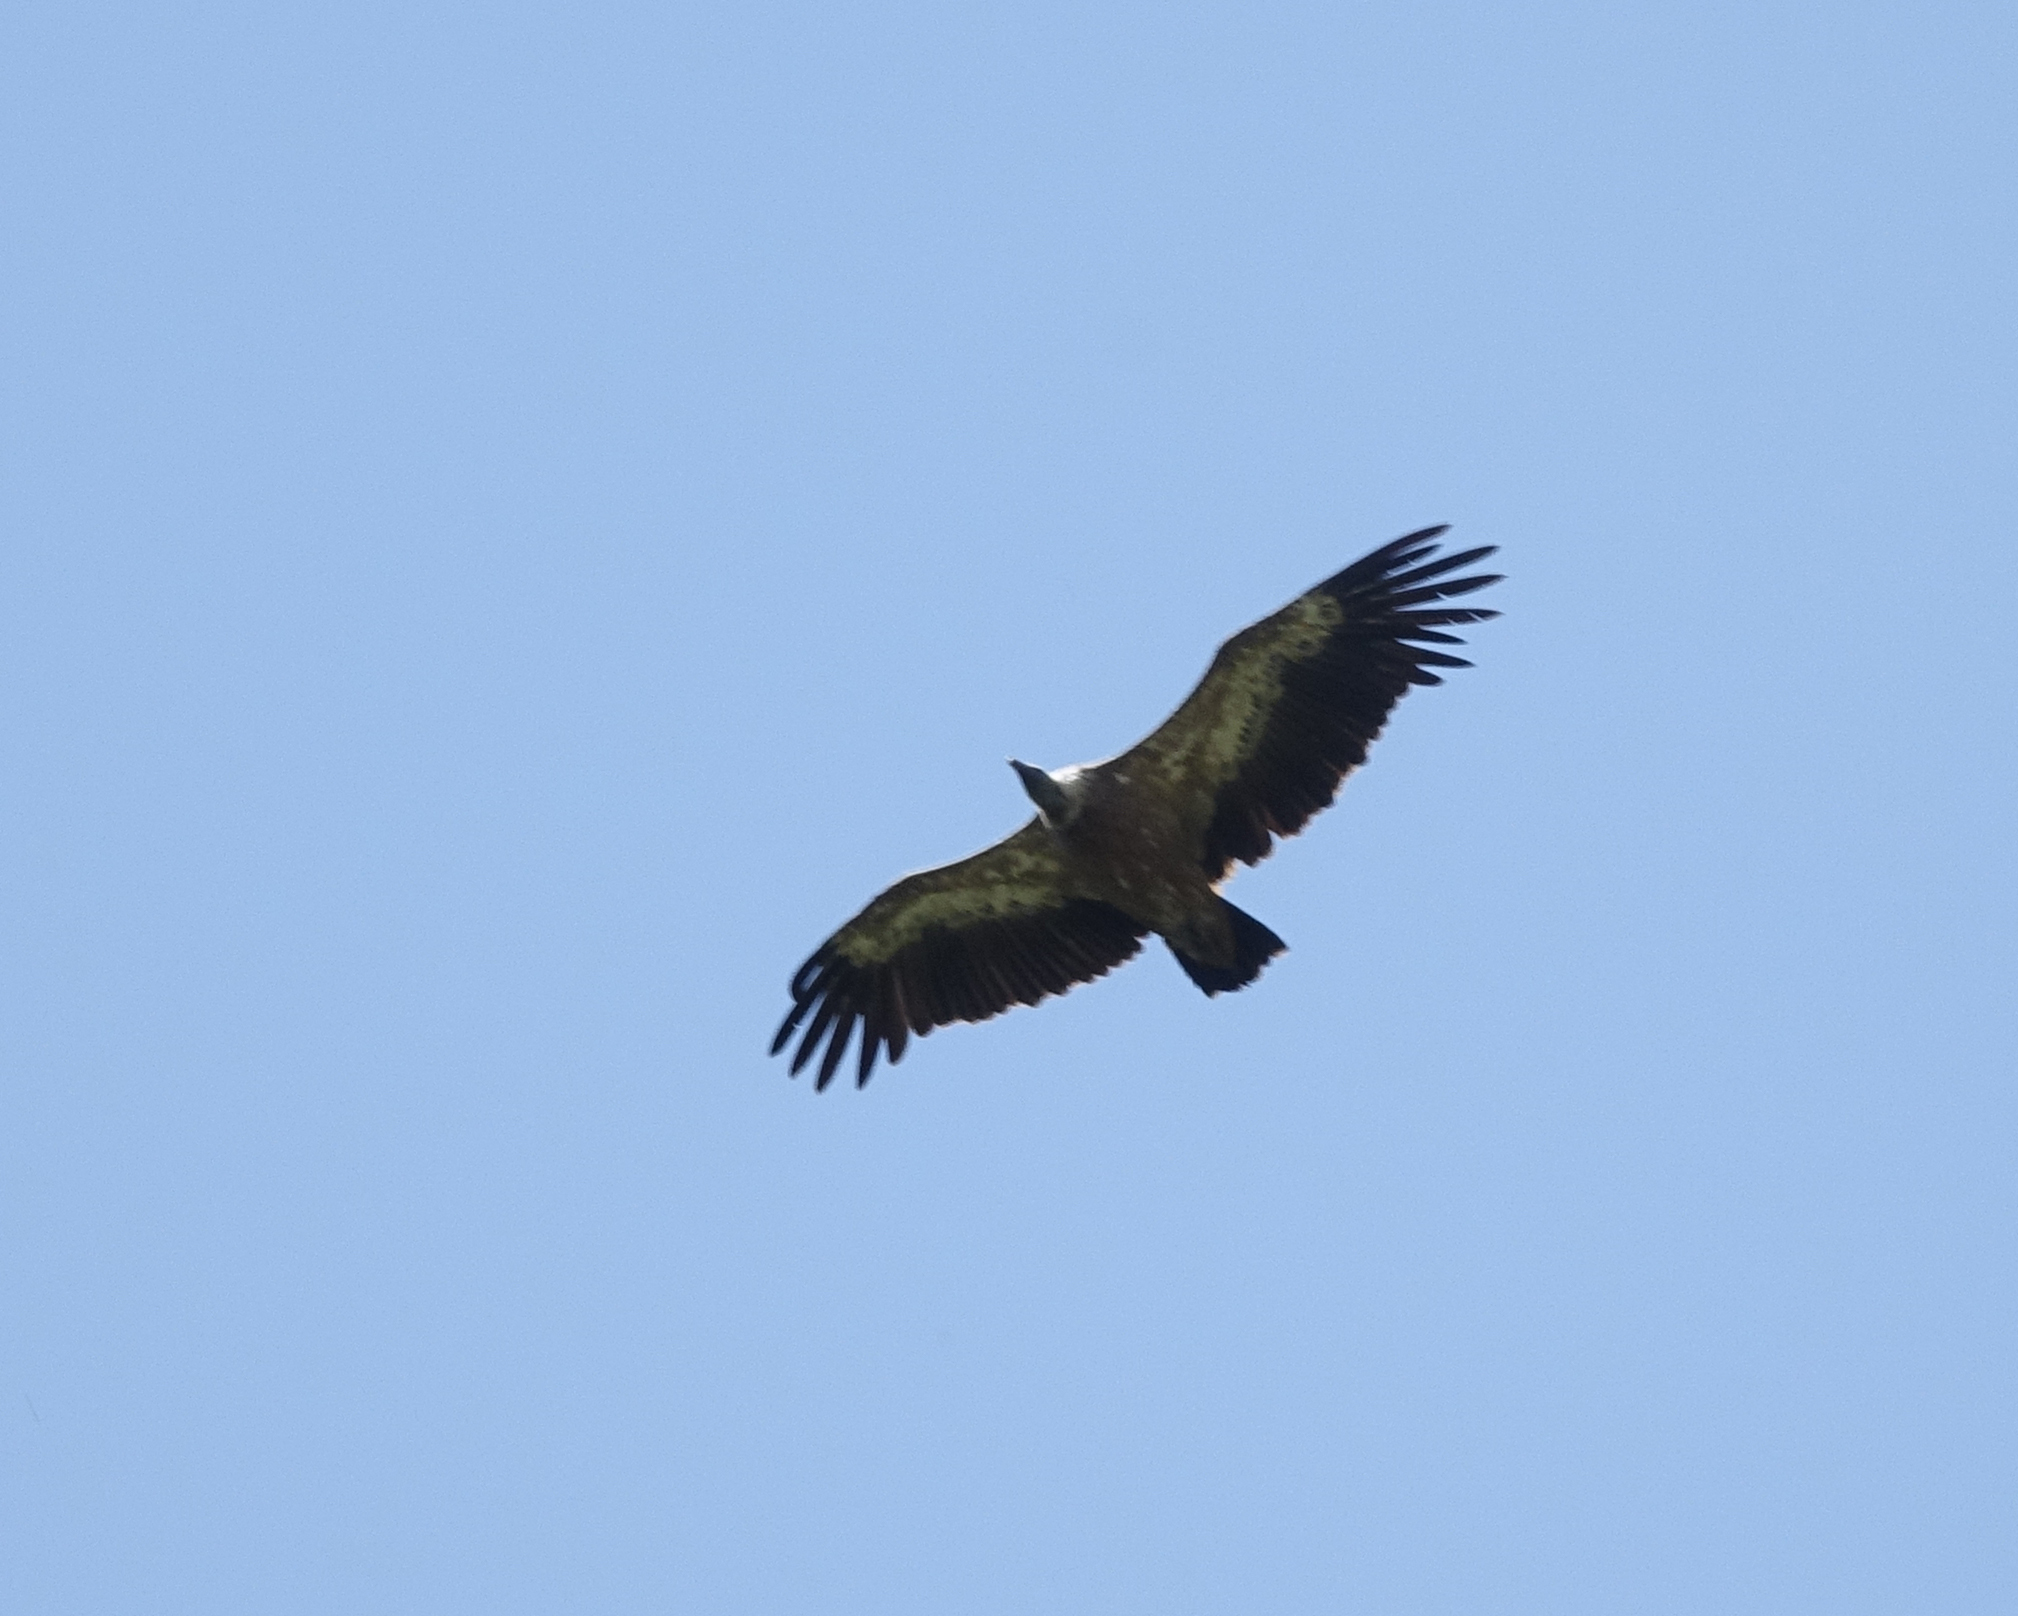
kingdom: Animalia
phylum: Chordata
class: Aves
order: Accipitriformes
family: Accipitridae
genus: Gyps
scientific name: Gyps fulvus
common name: Griffon vulture
